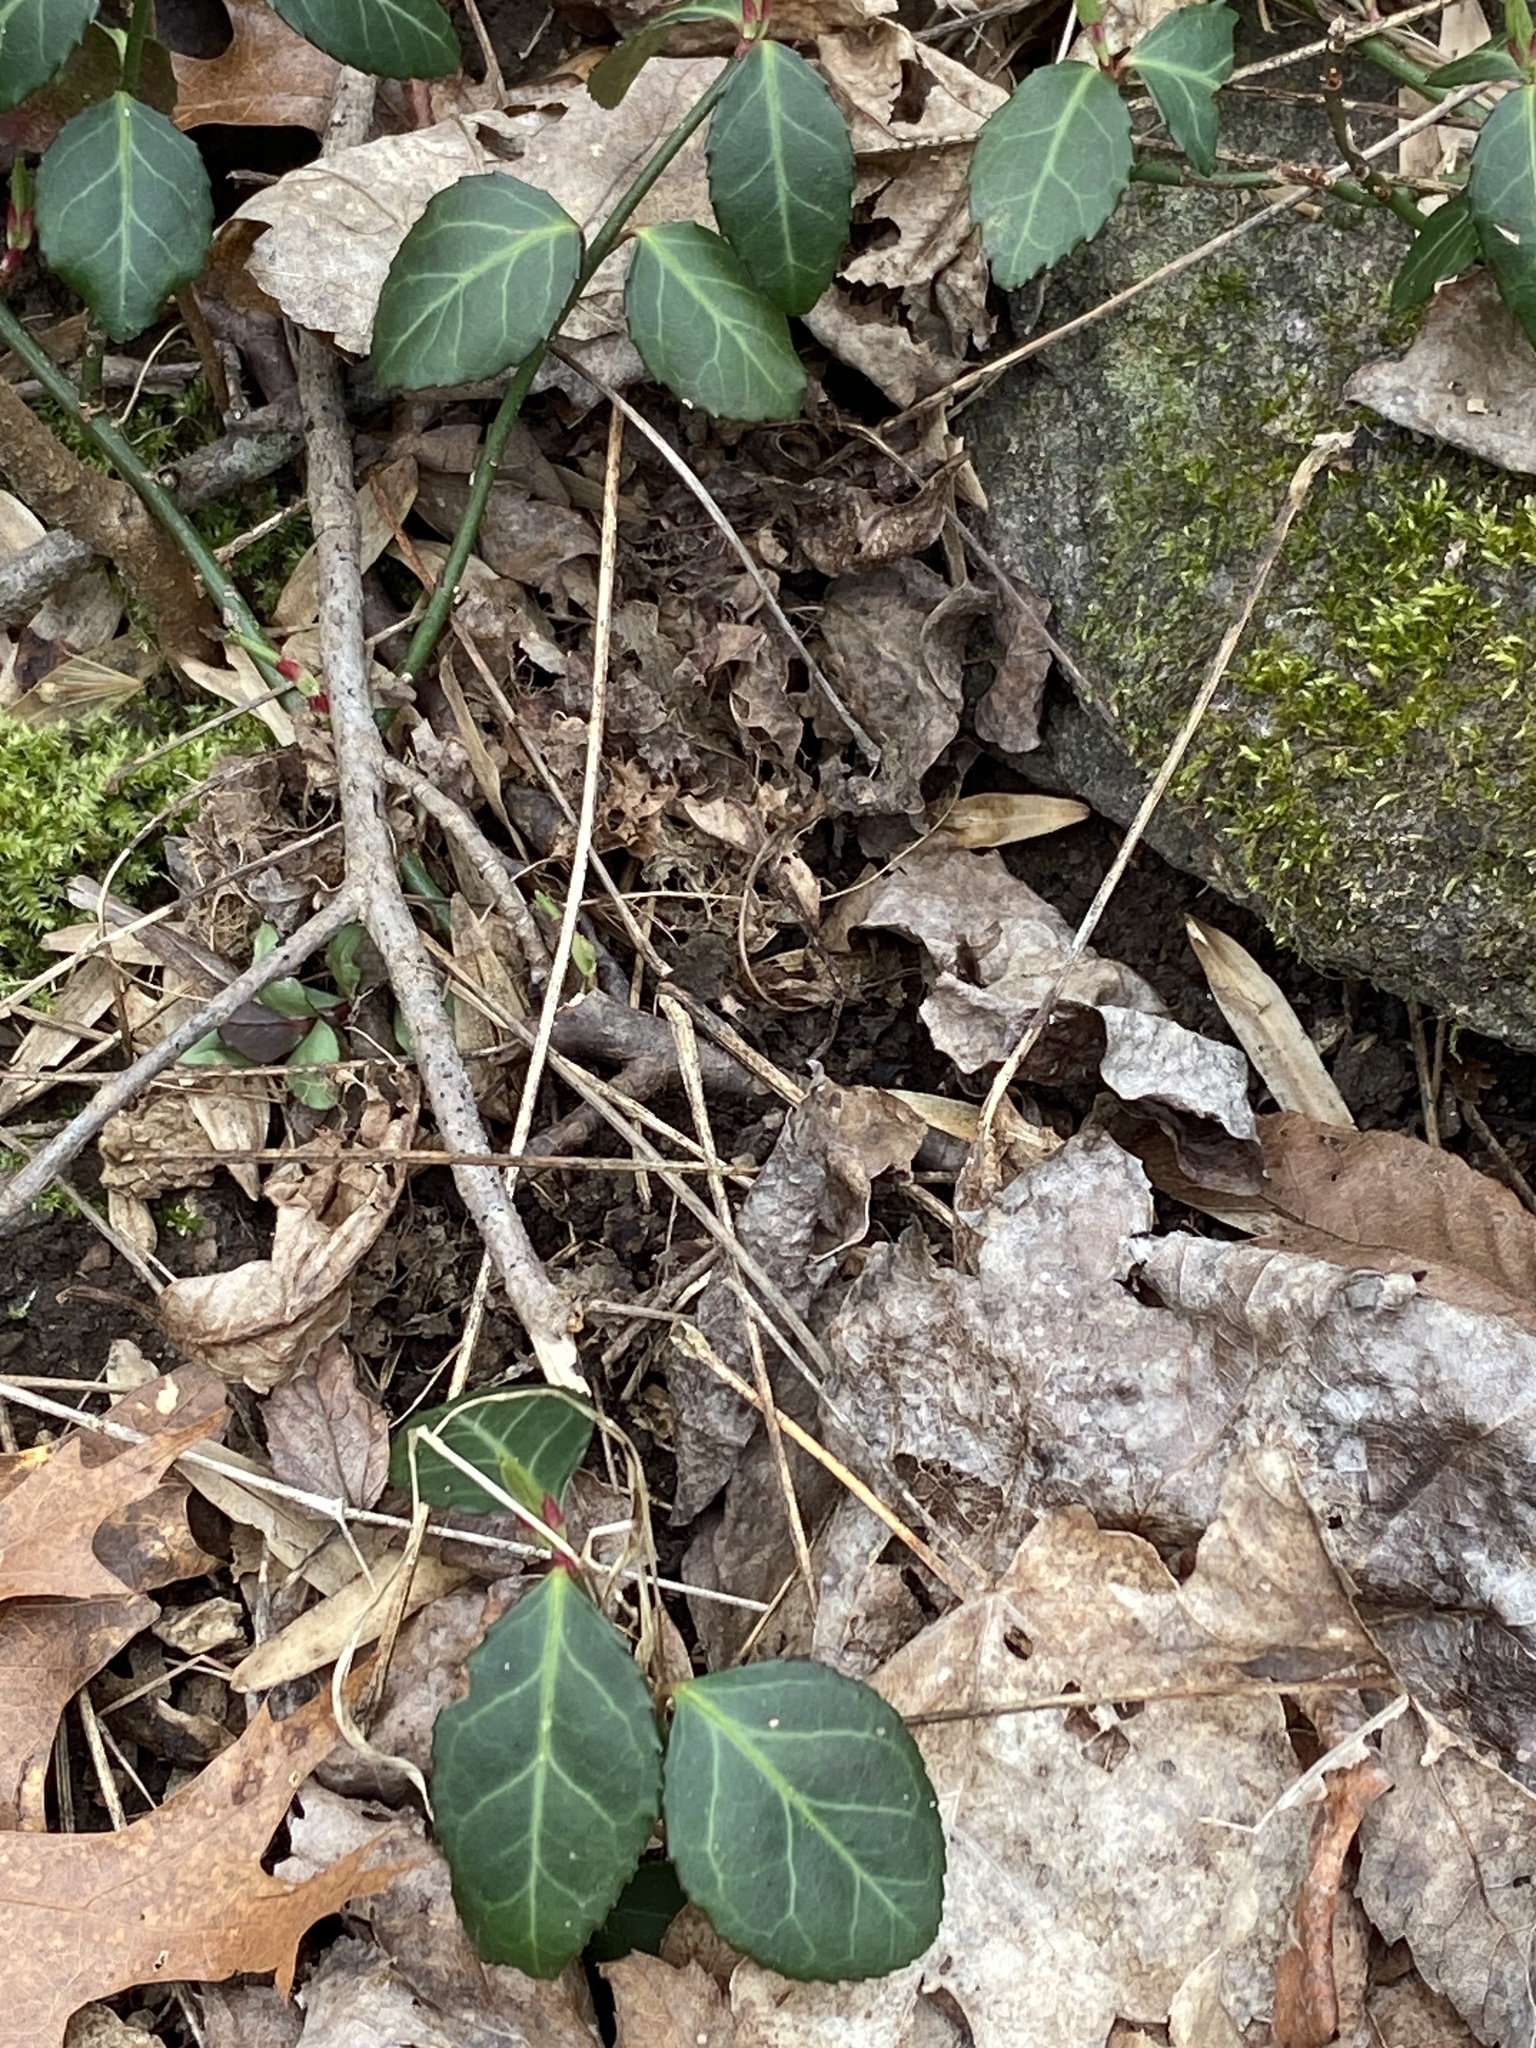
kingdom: Plantae
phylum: Tracheophyta
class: Magnoliopsida
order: Celastrales
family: Celastraceae
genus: Euonymus
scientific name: Euonymus fortunei
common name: Climbing euonymus
